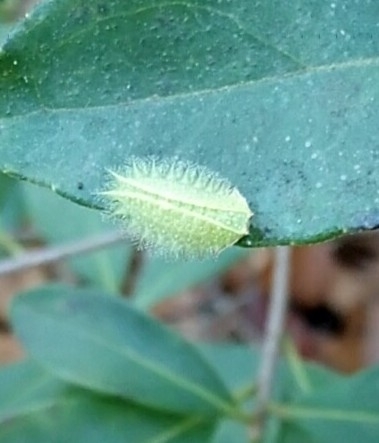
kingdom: Animalia
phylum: Arthropoda
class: Insecta
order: Lepidoptera
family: Limacodidae
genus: Isa
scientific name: Isa textula
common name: Crowned slug moth
